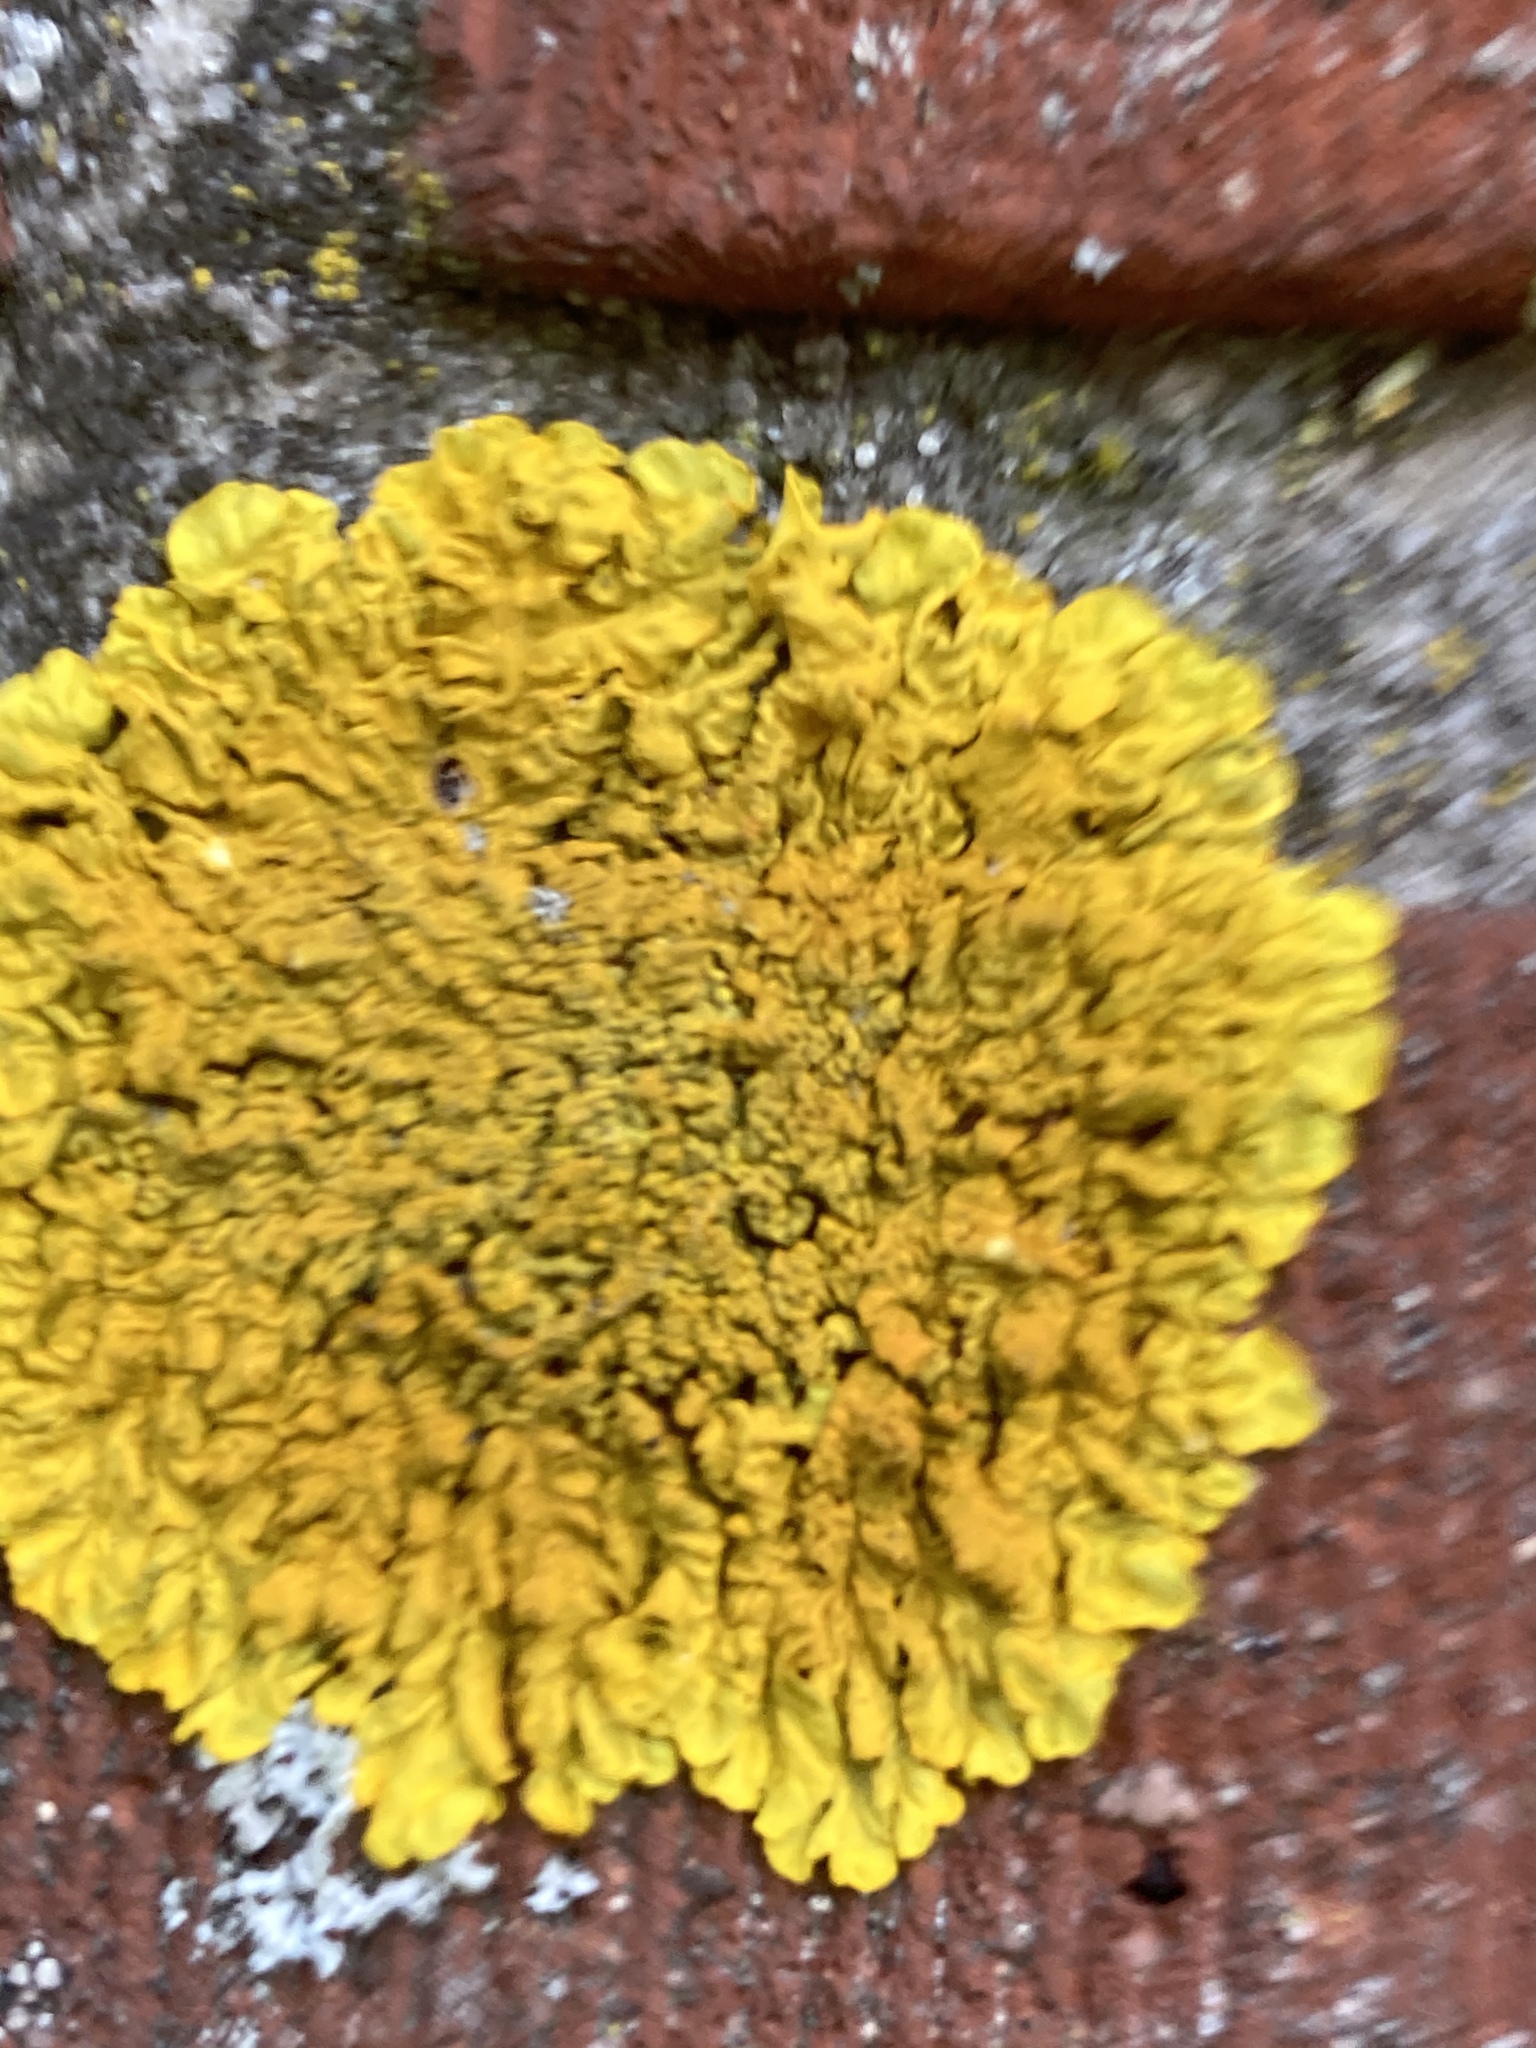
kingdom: Fungi
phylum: Ascomycota
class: Lecanoromycetes
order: Teloschistales
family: Teloschistaceae
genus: Xanthoria
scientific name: Xanthoria calcicola
